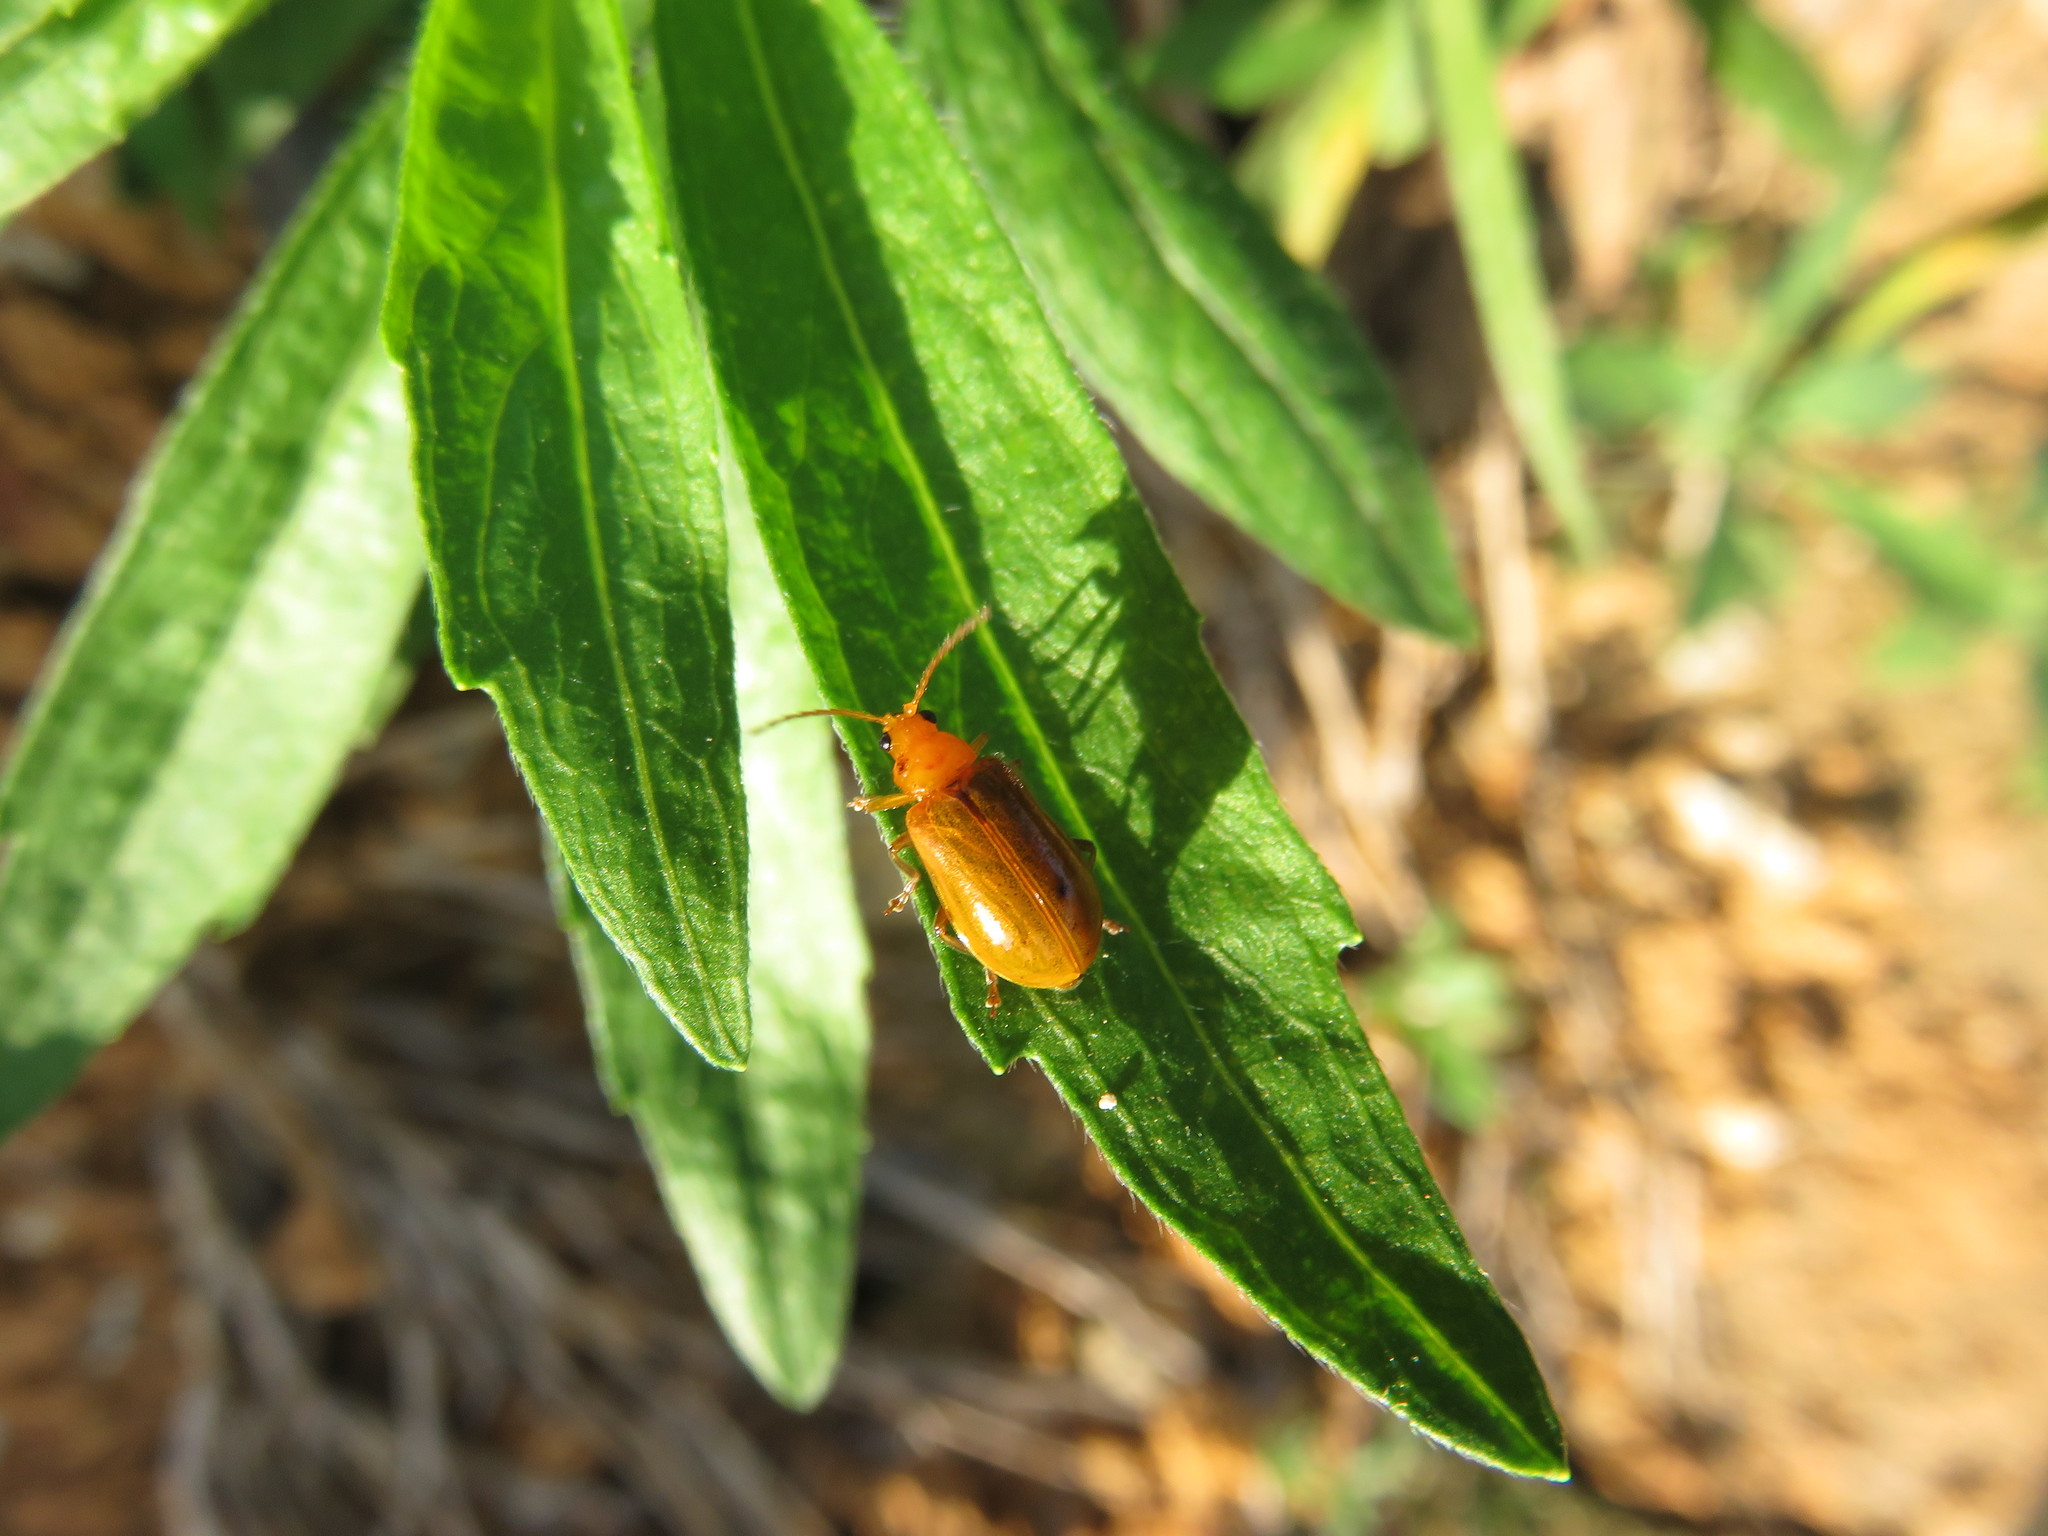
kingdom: Animalia
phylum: Arthropoda
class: Insecta
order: Coleoptera
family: Chrysomelidae
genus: Aulacophora
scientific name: Aulacophora indica
